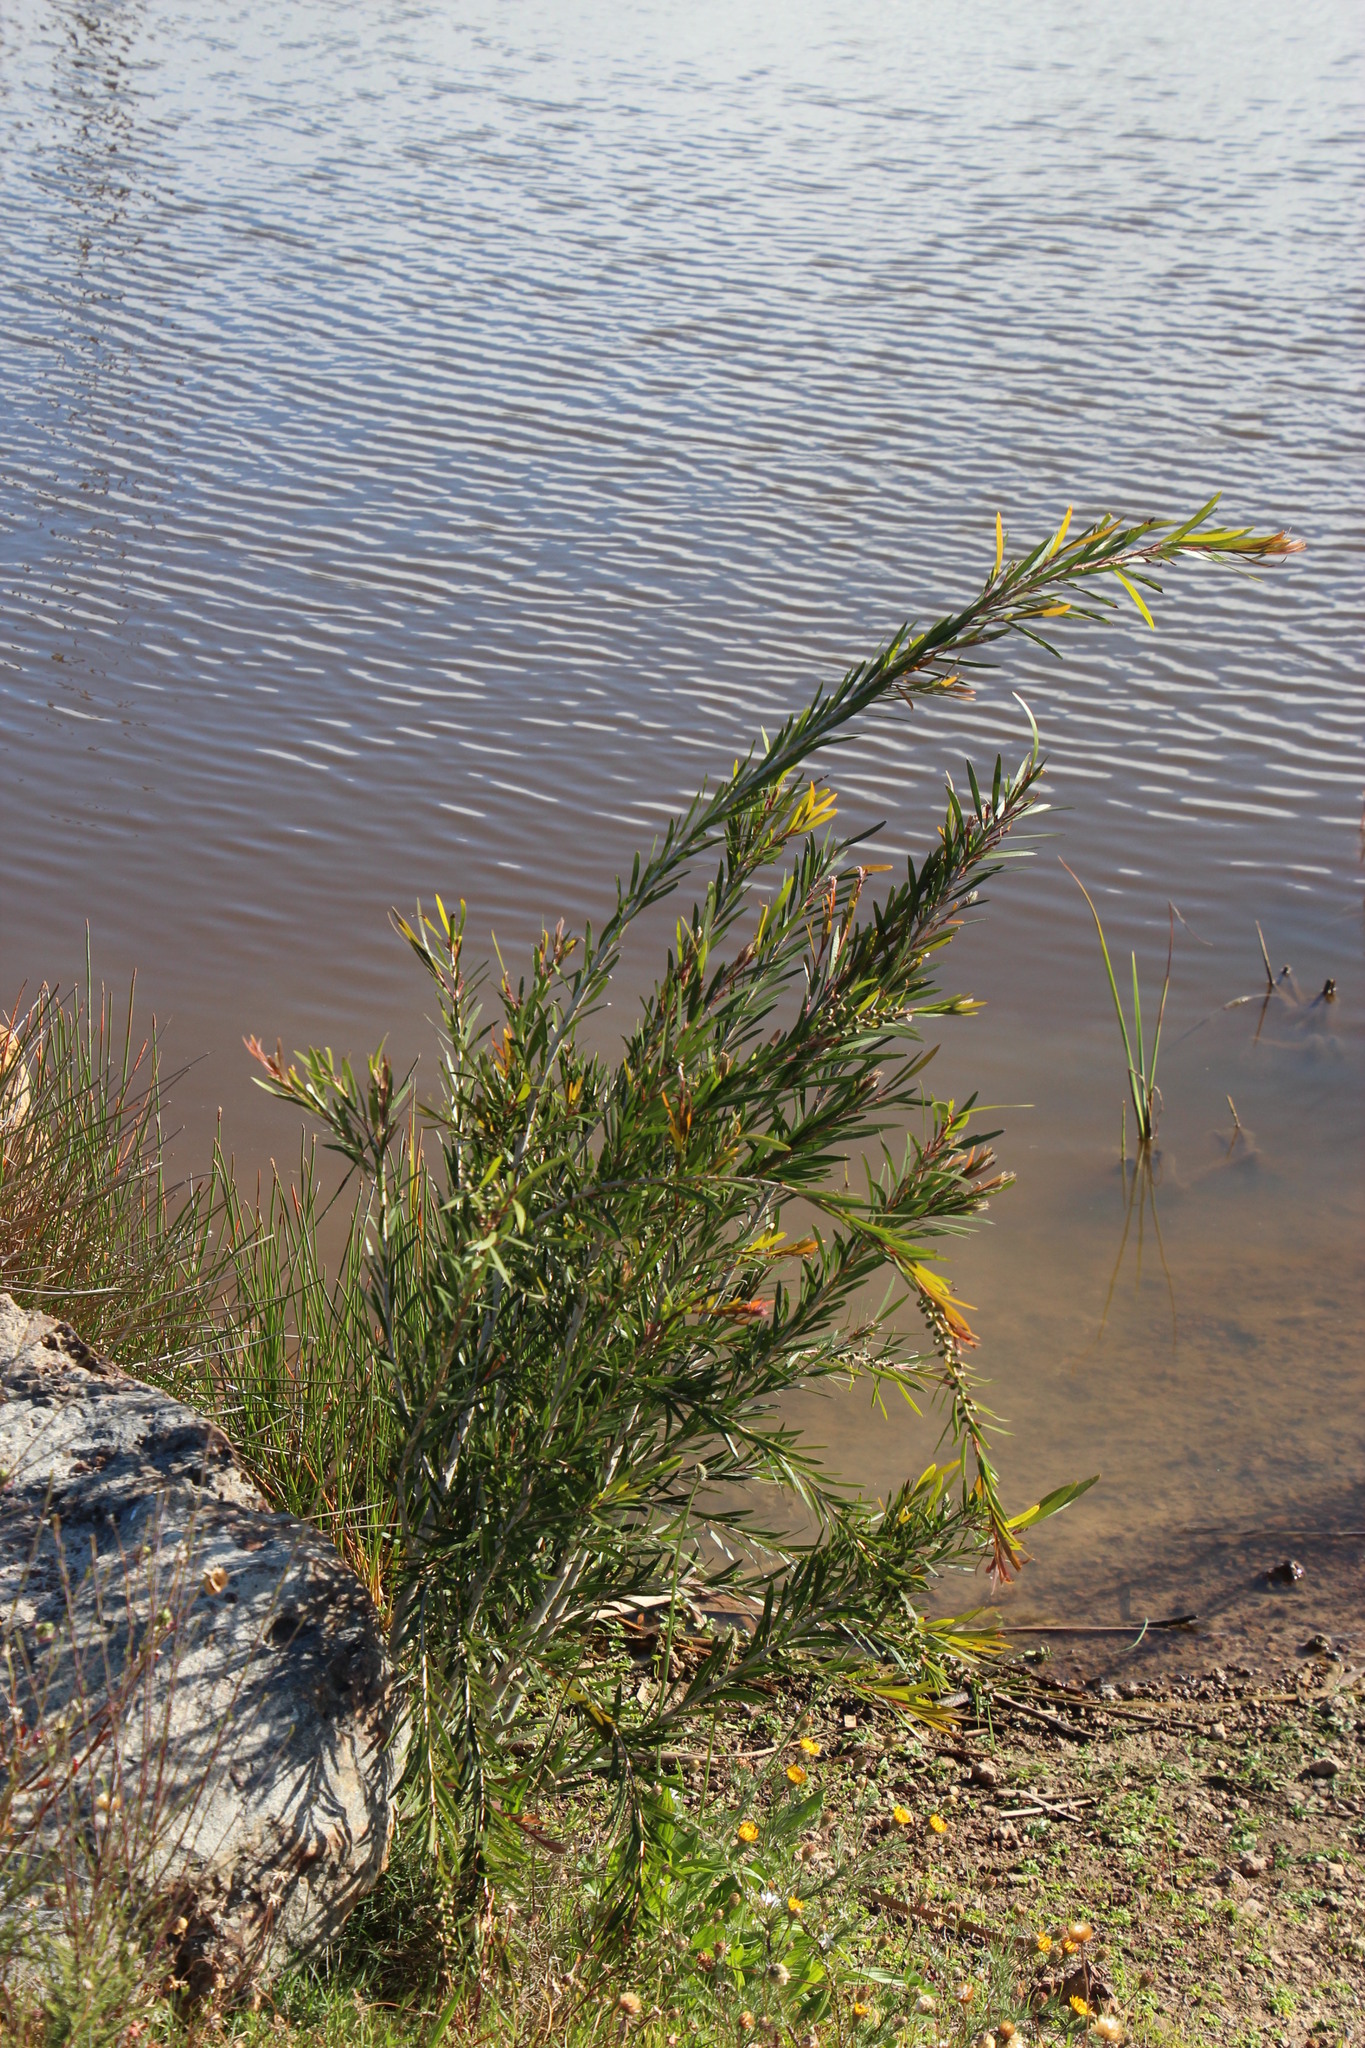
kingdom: Plantae
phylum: Tracheophyta
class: Magnoliopsida
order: Myrtales
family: Myrtaceae
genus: Callistemon
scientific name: Callistemon viminalis
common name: Drooping bottlebrush
